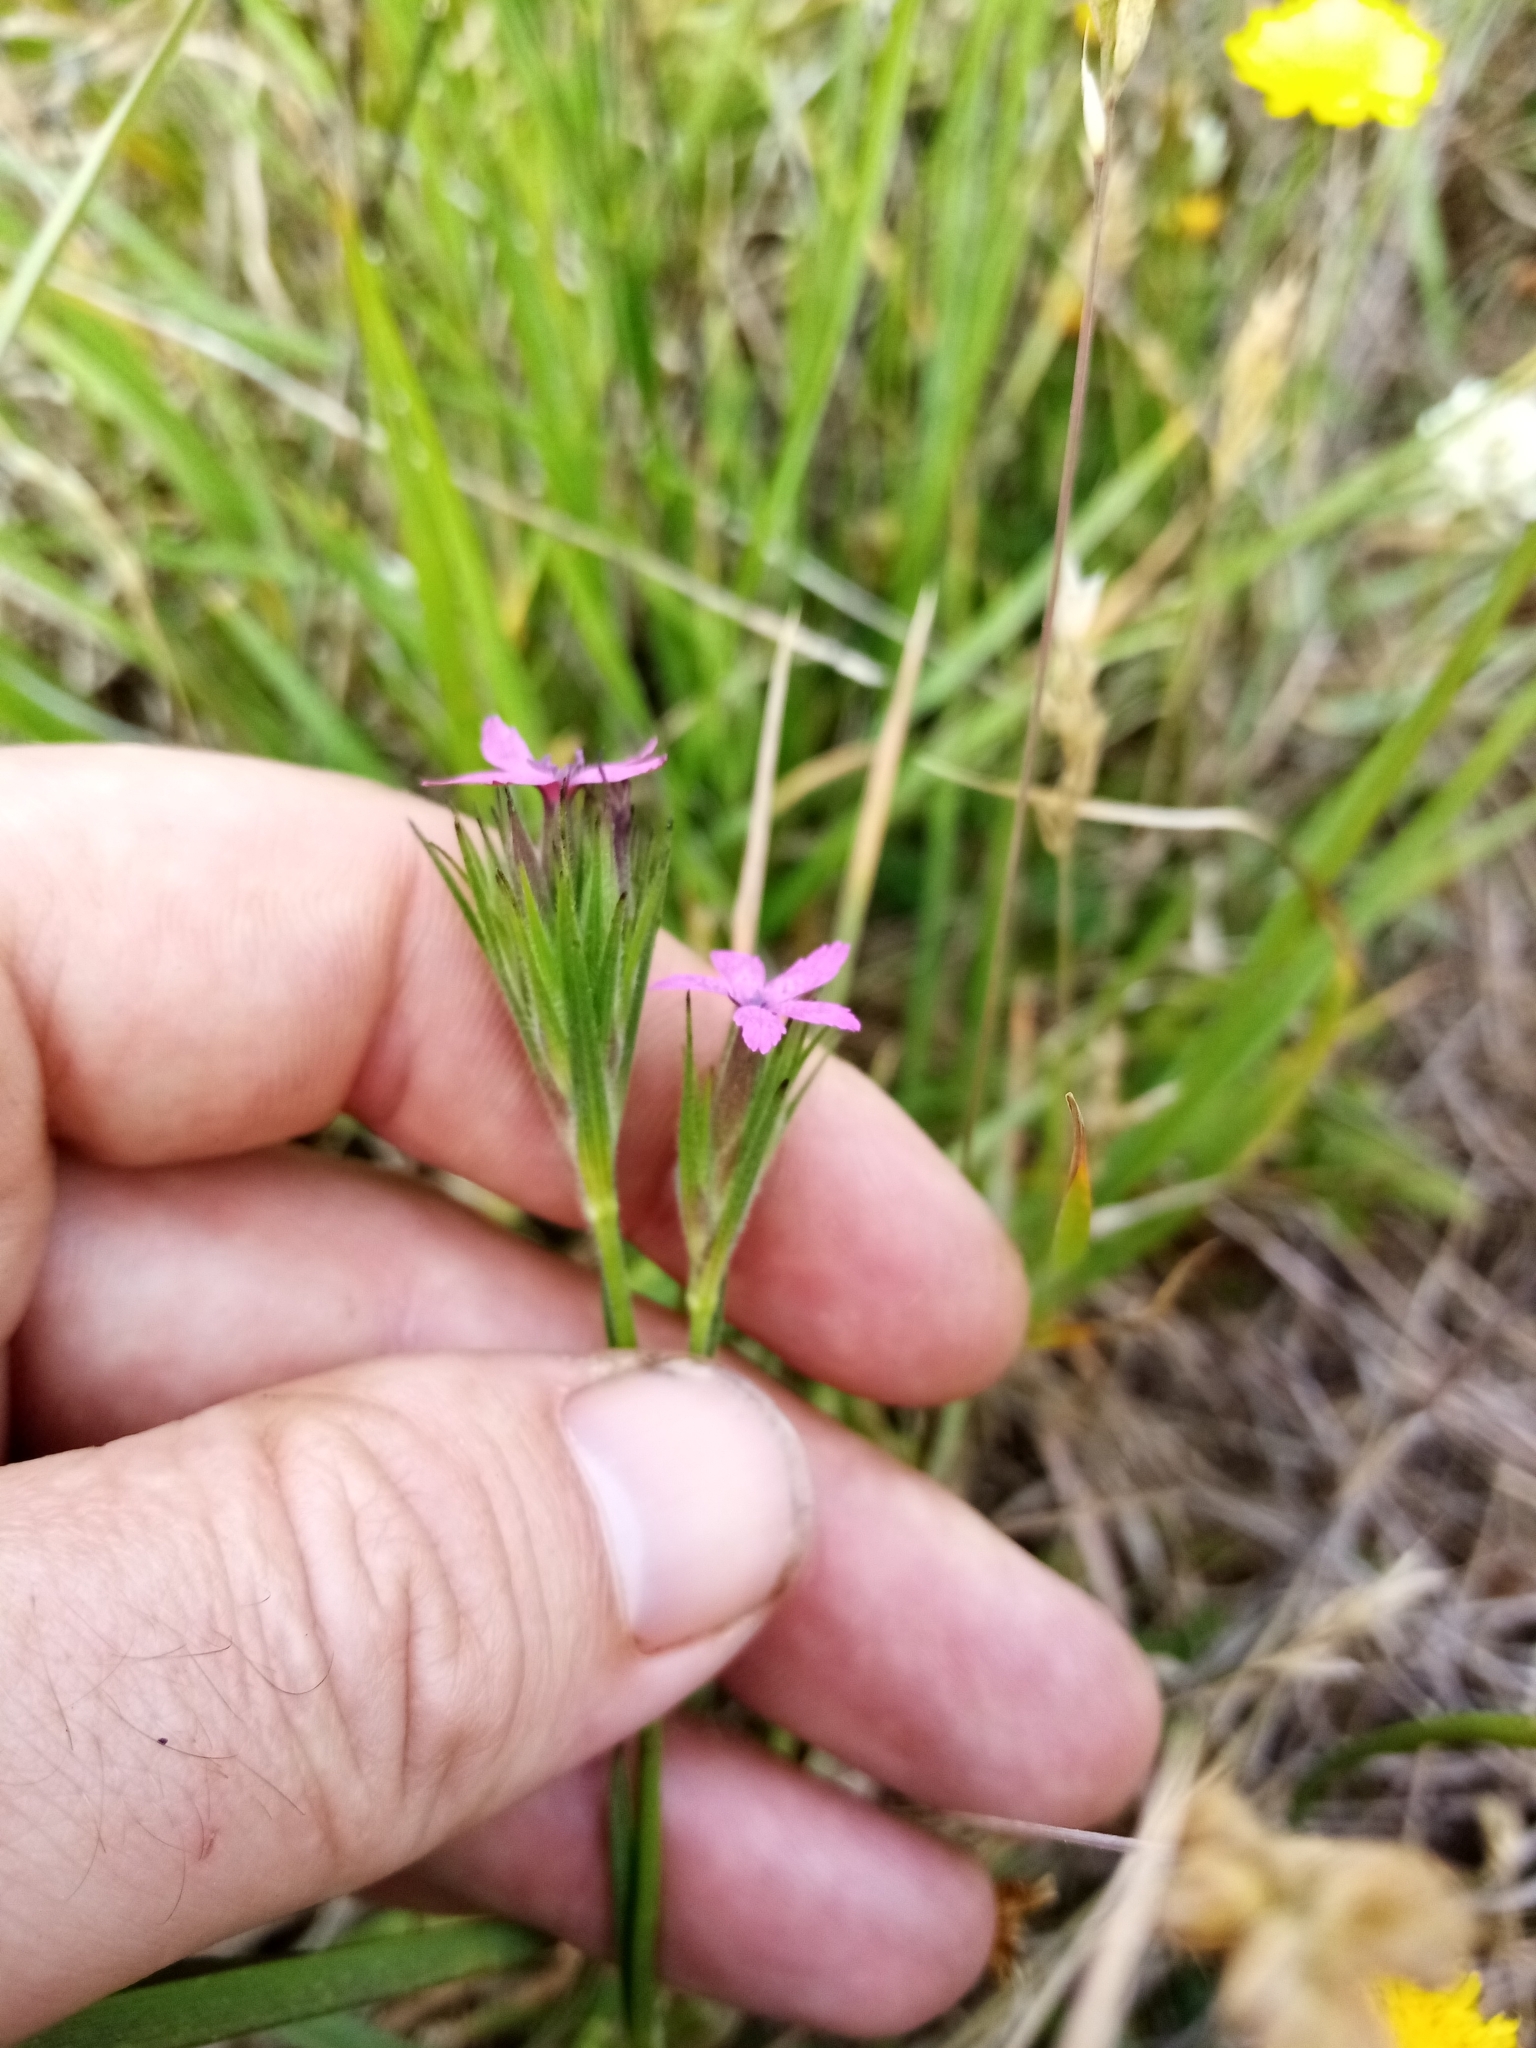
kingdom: Plantae
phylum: Tracheophyta
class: Magnoliopsida
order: Caryophyllales
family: Caryophyllaceae
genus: Dianthus
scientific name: Dianthus armeria
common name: Deptford pink
